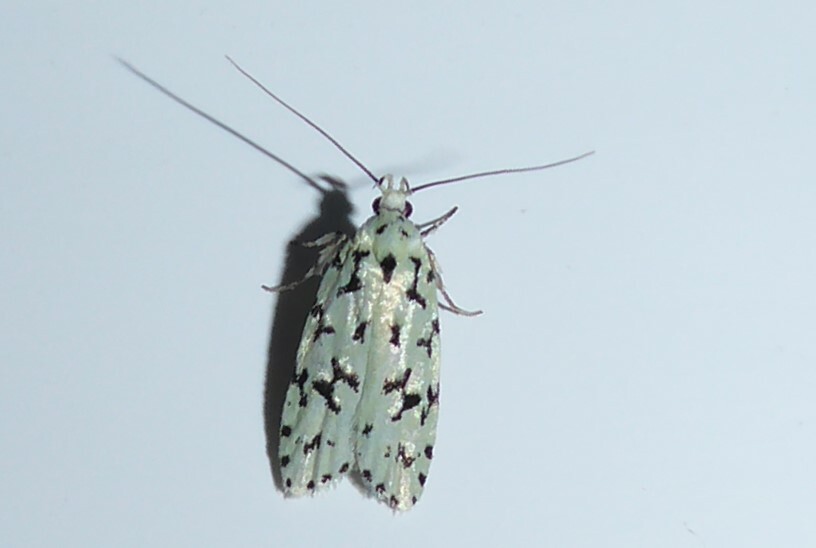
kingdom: Animalia
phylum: Arthropoda
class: Insecta
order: Lepidoptera
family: Oecophoridae
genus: Izatha
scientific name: Izatha huttoni
